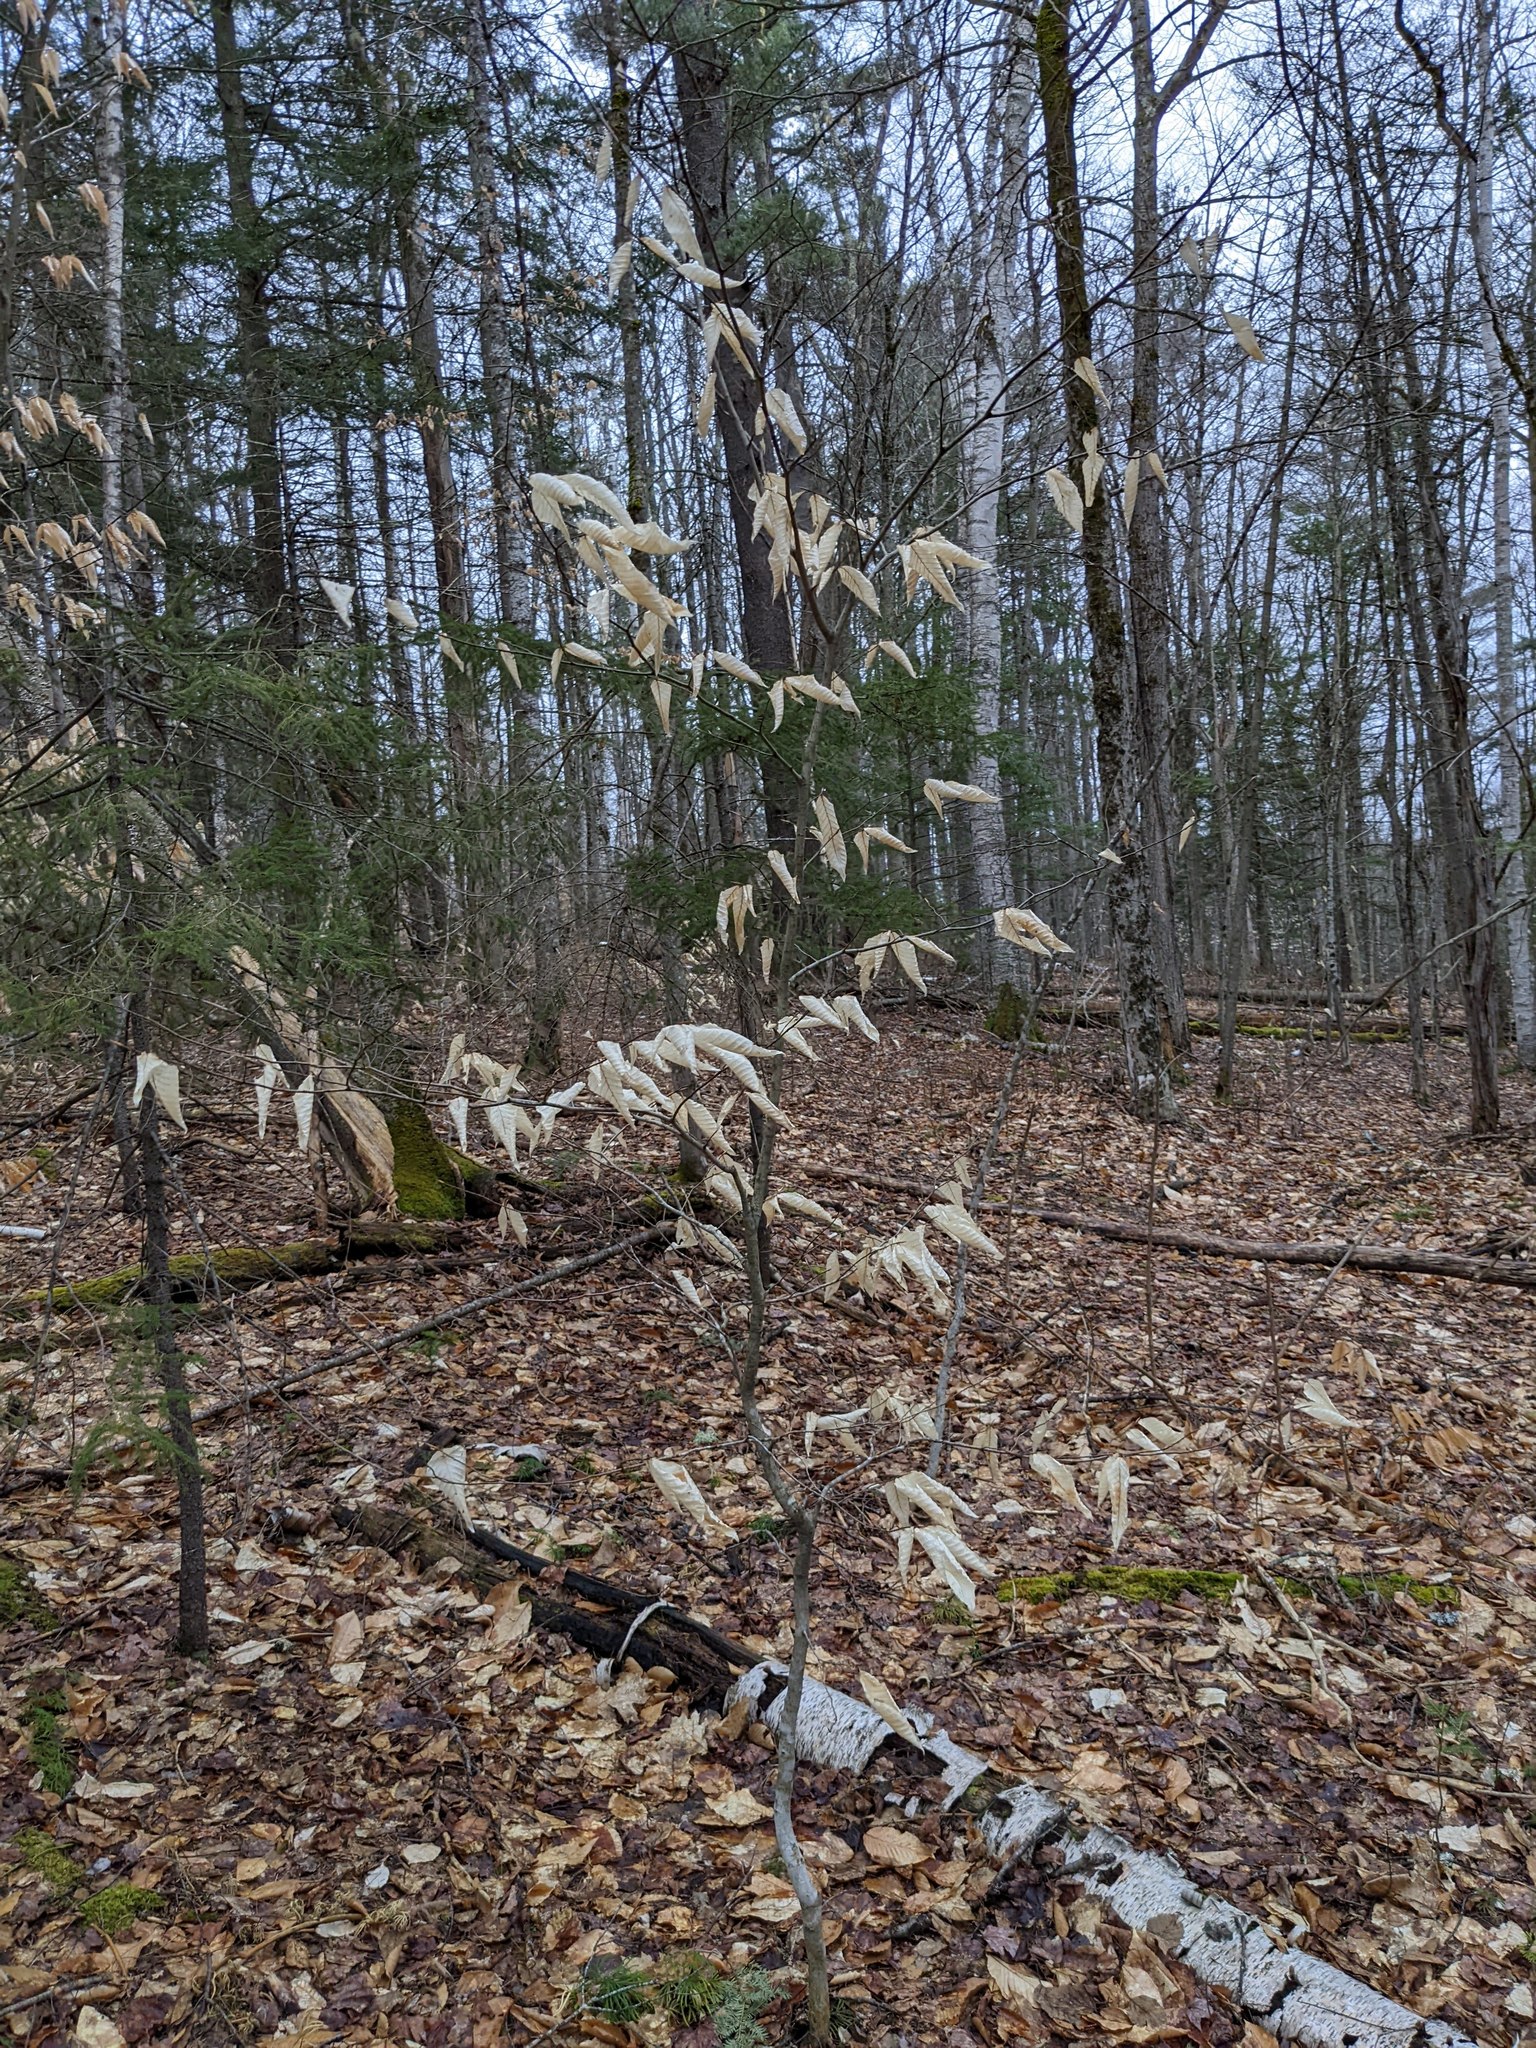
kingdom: Plantae
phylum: Tracheophyta
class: Magnoliopsida
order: Fagales
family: Fagaceae
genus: Fagus
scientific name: Fagus grandifolia
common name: American beech
